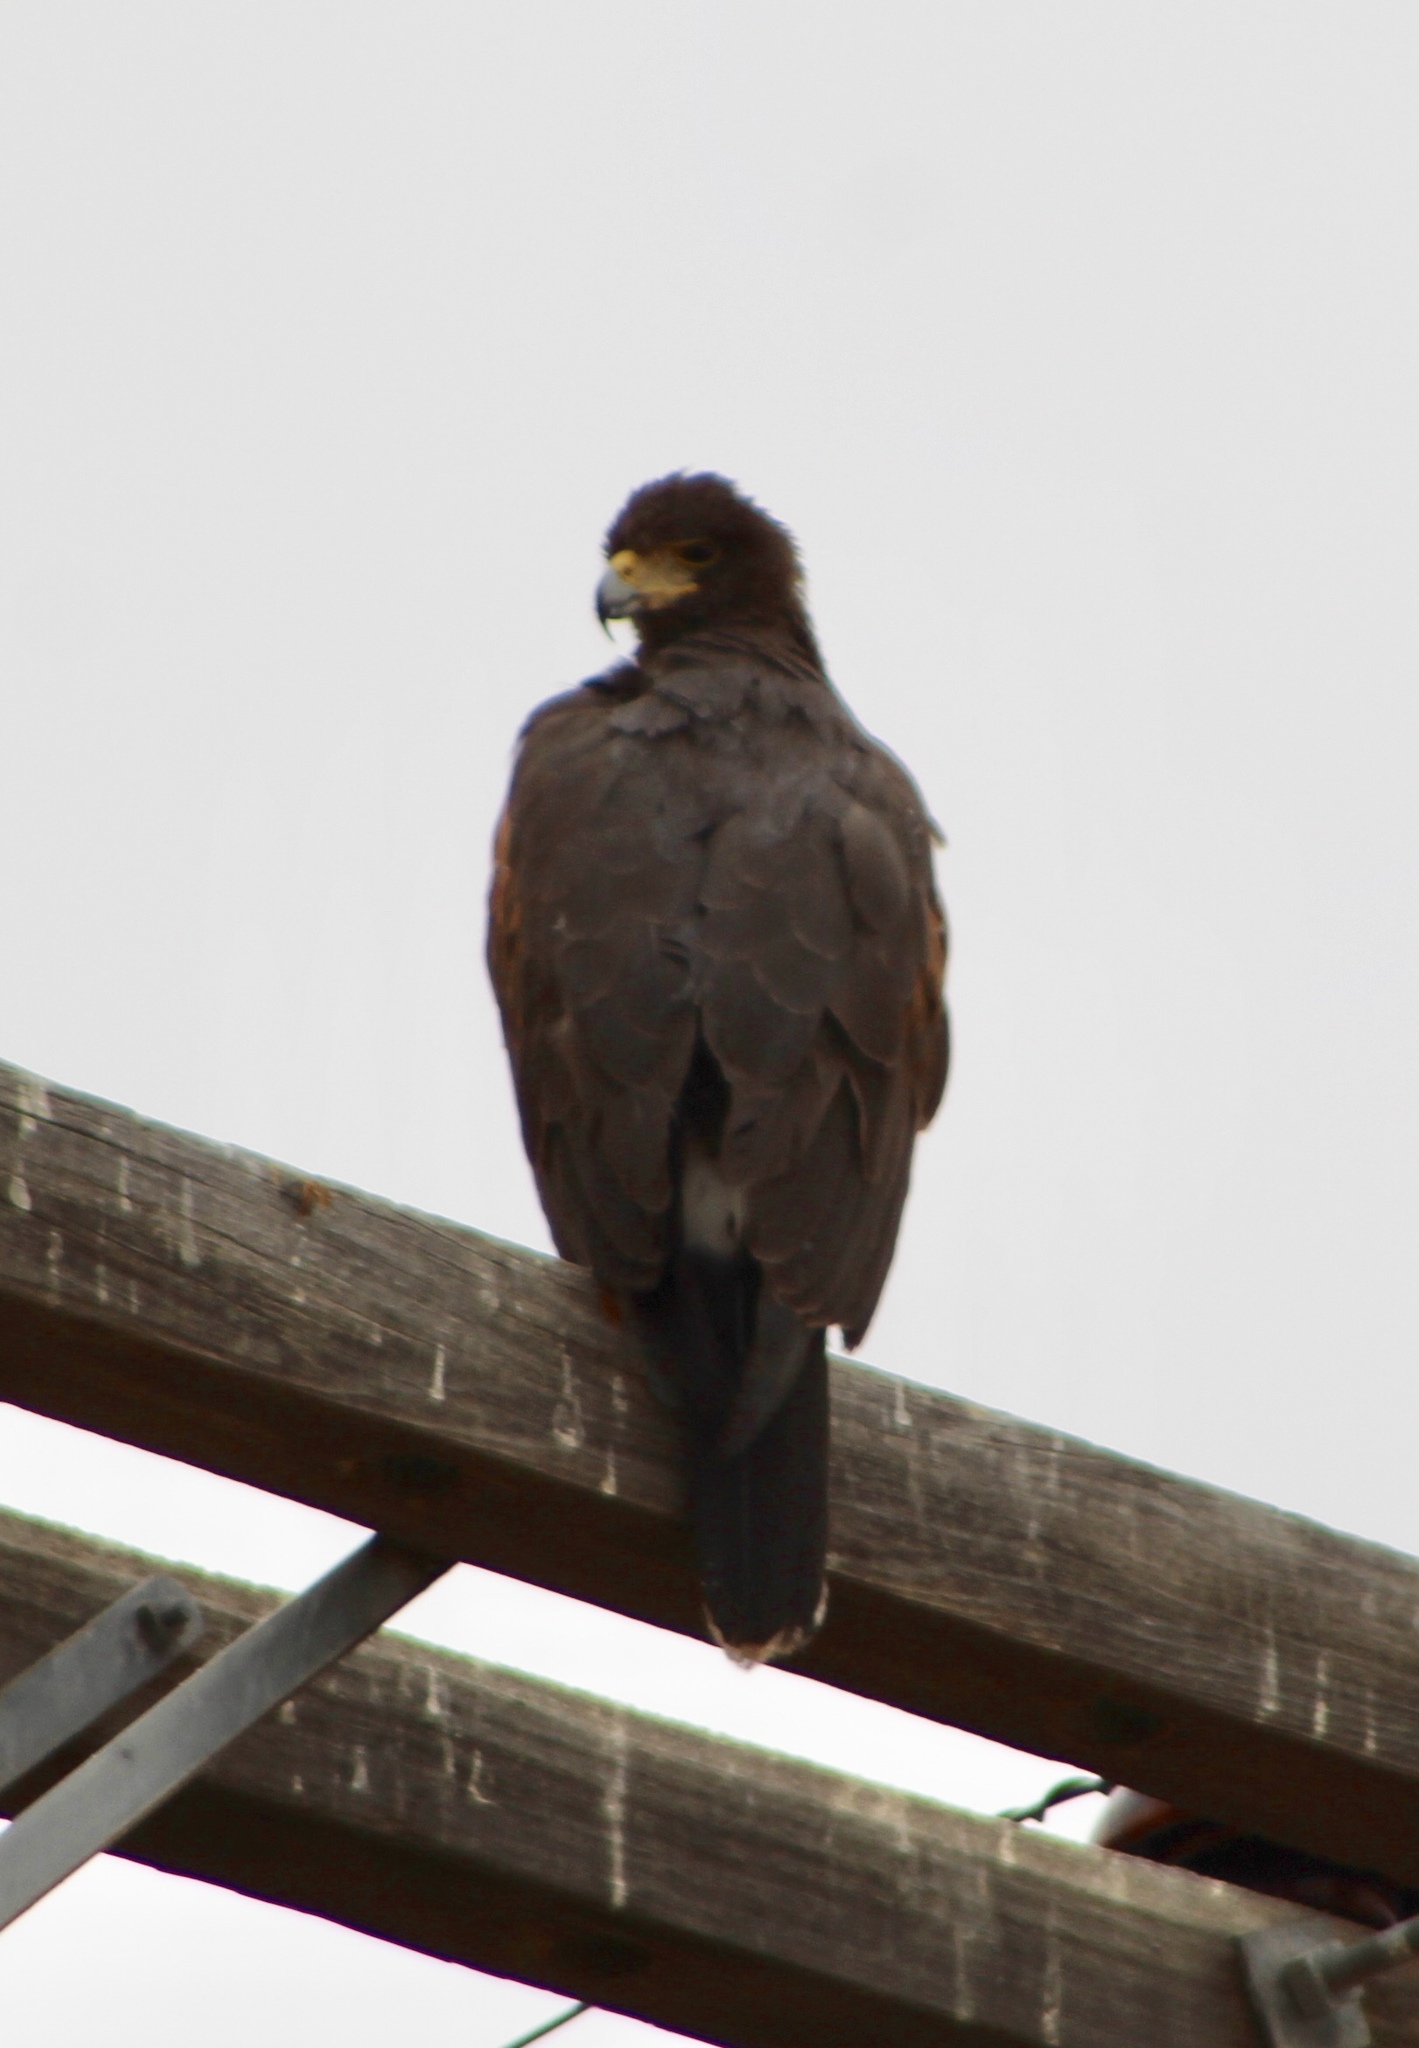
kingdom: Animalia
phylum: Chordata
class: Aves
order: Accipitriformes
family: Accipitridae
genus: Parabuteo
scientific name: Parabuteo unicinctus
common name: Harris's hawk
